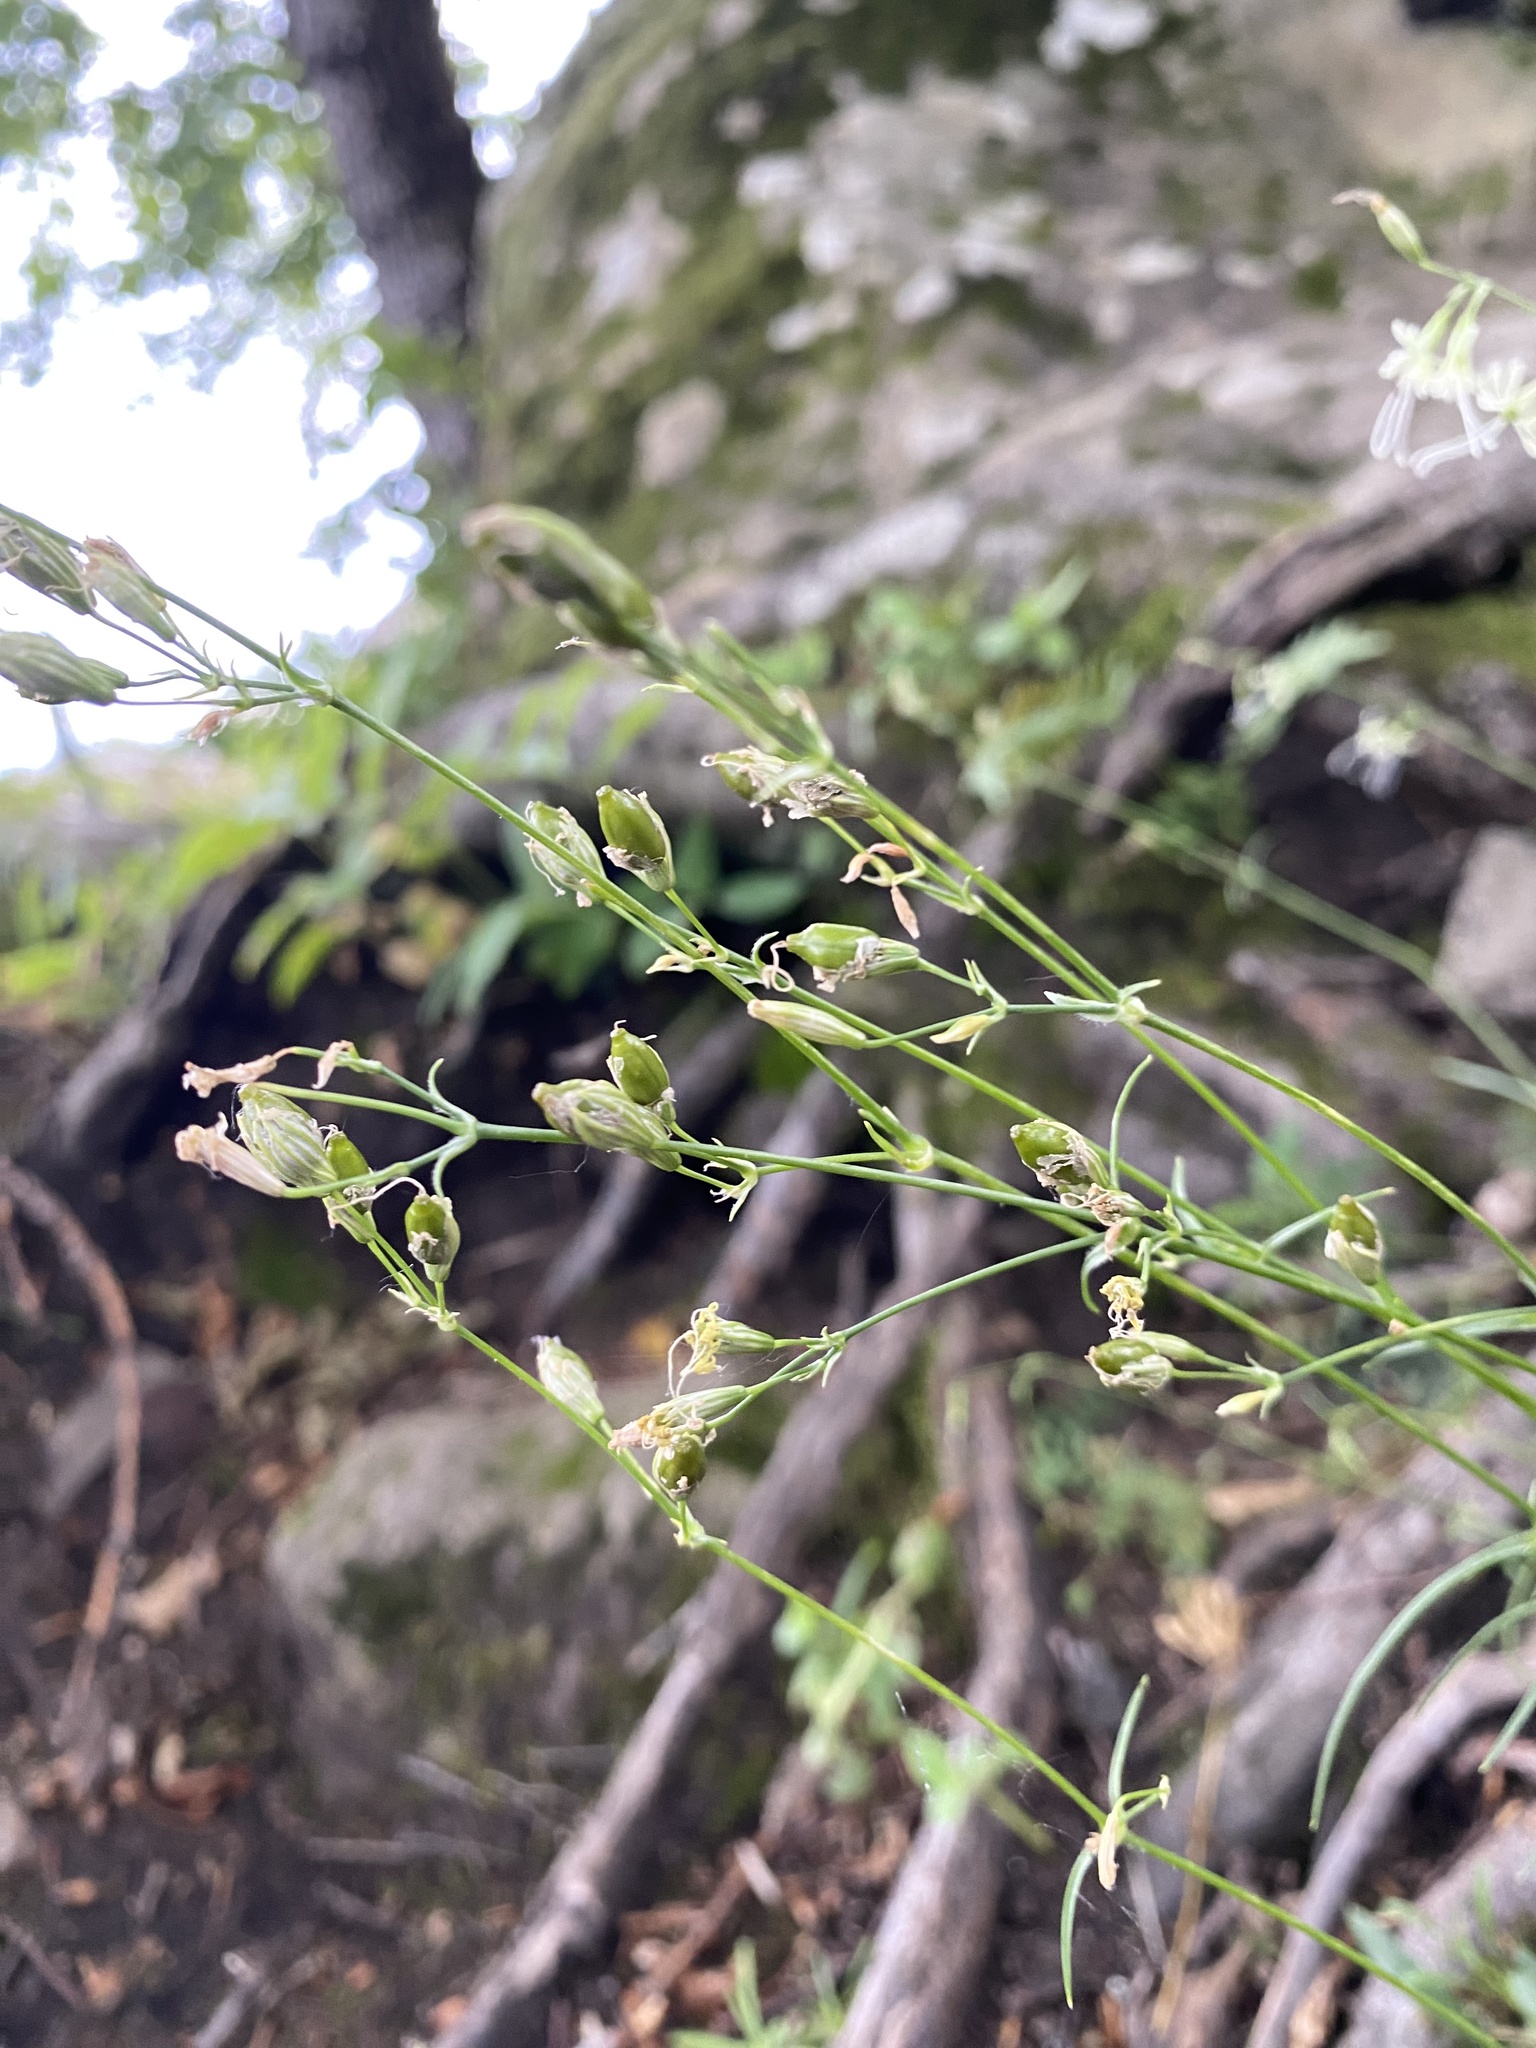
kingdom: Plantae
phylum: Tracheophyta
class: Magnoliopsida
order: Caryophyllales
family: Caryophyllaceae
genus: Silene
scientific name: Silene saxatilis
